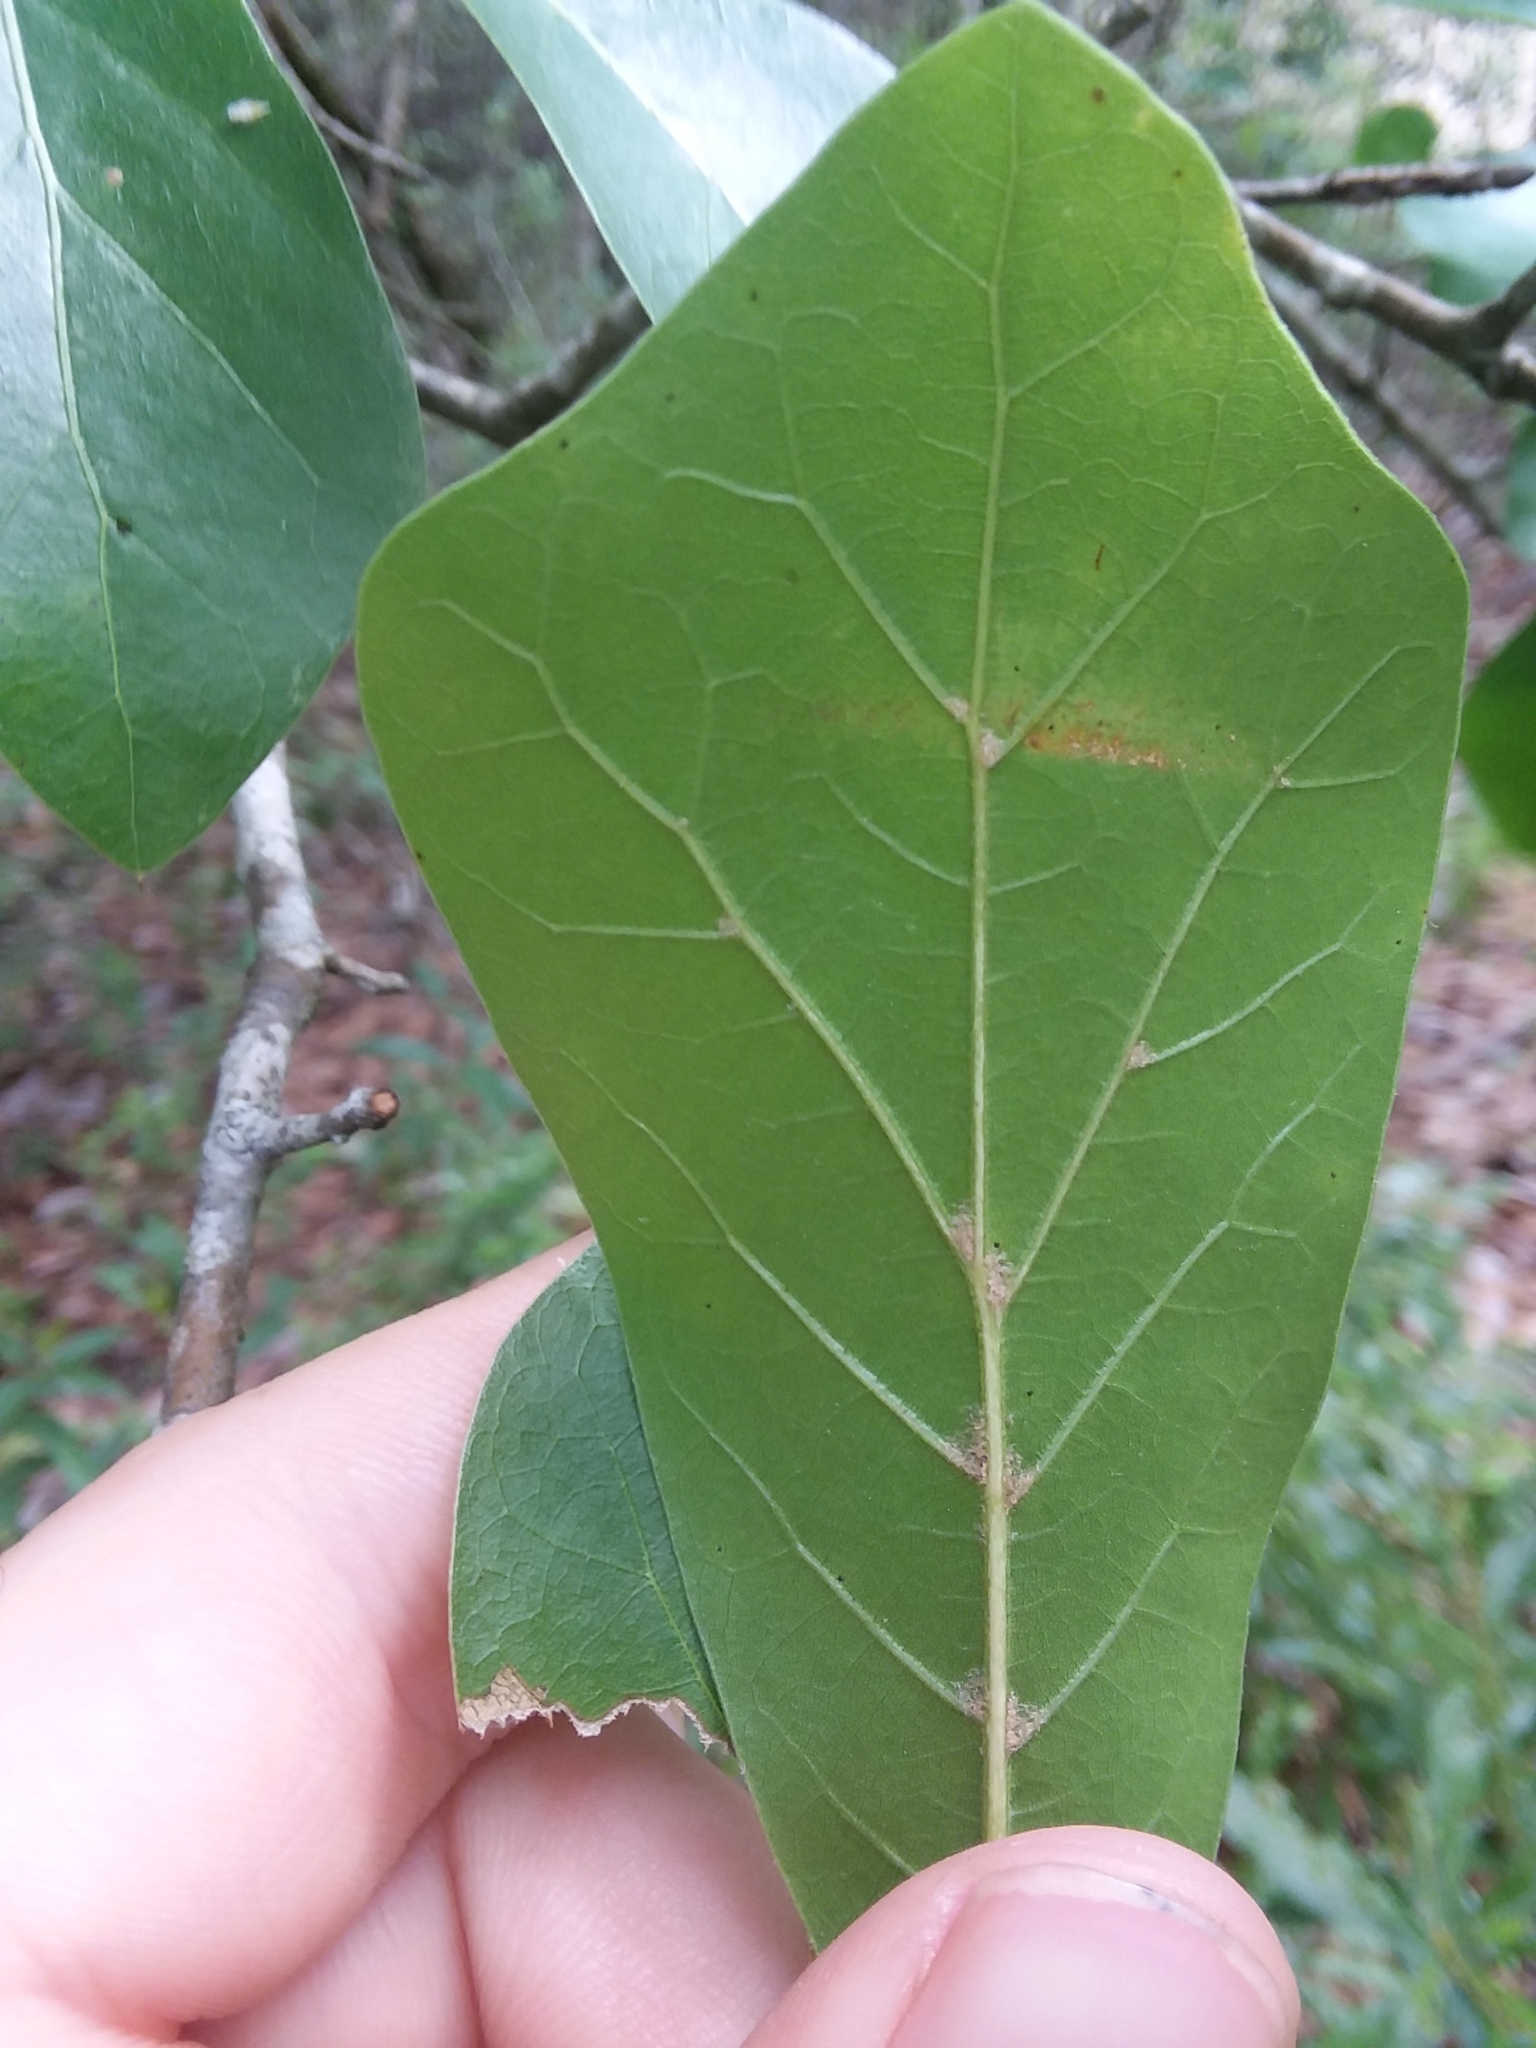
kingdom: Plantae
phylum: Tracheophyta
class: Magnoliopsida
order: Fagales
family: Fagaceae
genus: Quercus
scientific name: Quercus nigra
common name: Water oak
